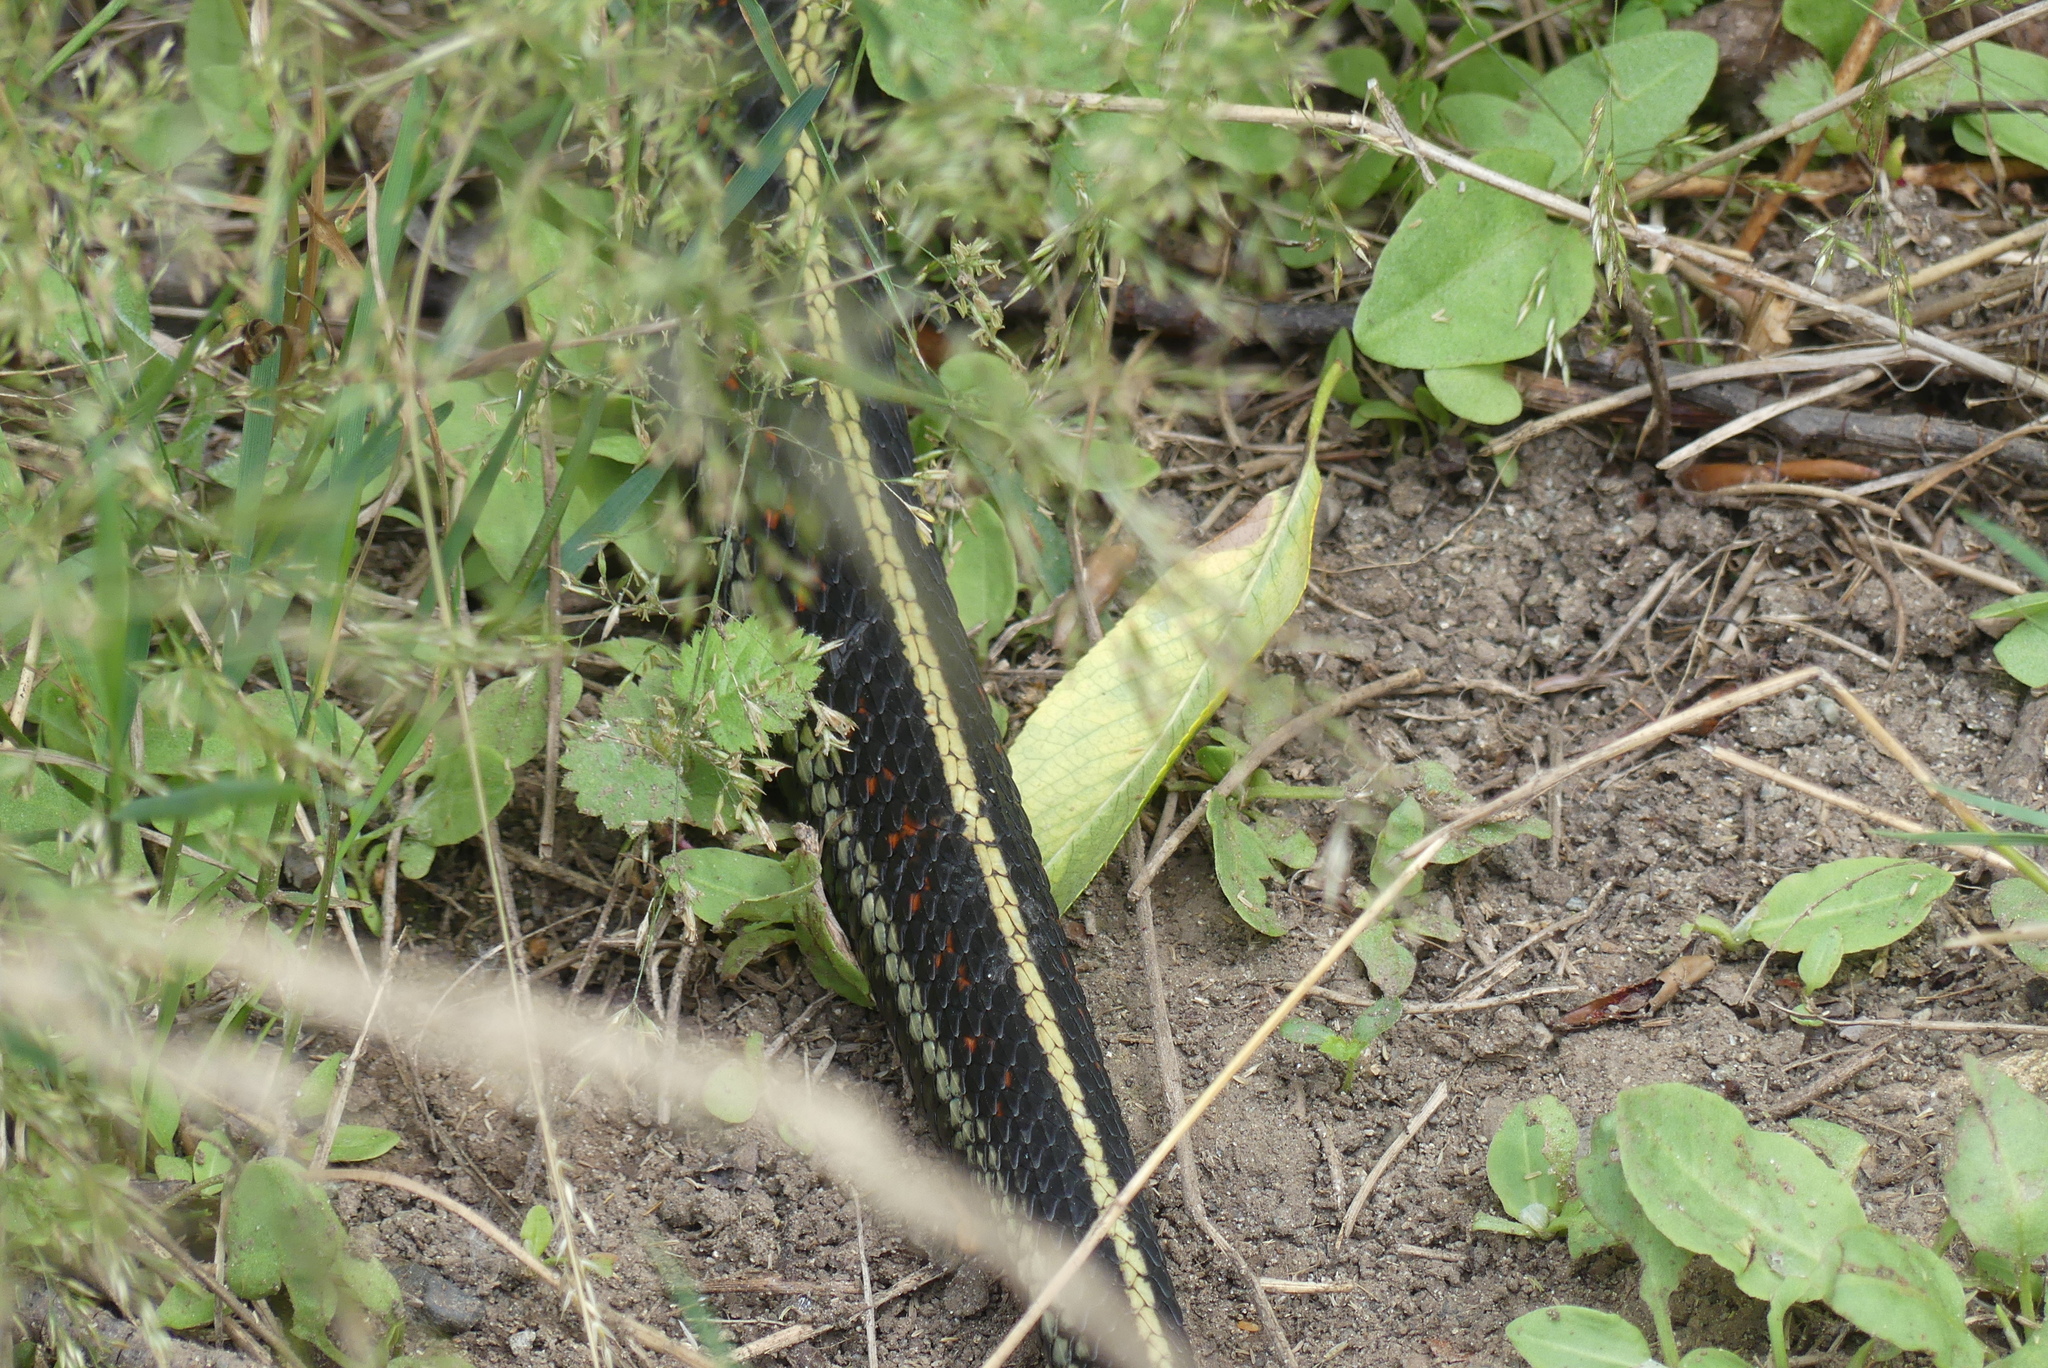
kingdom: Animalia
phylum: Chordata
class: Squamata
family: Colubridae
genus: Thamnophis
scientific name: Thamnophis sirtalis
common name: Common garter snake
